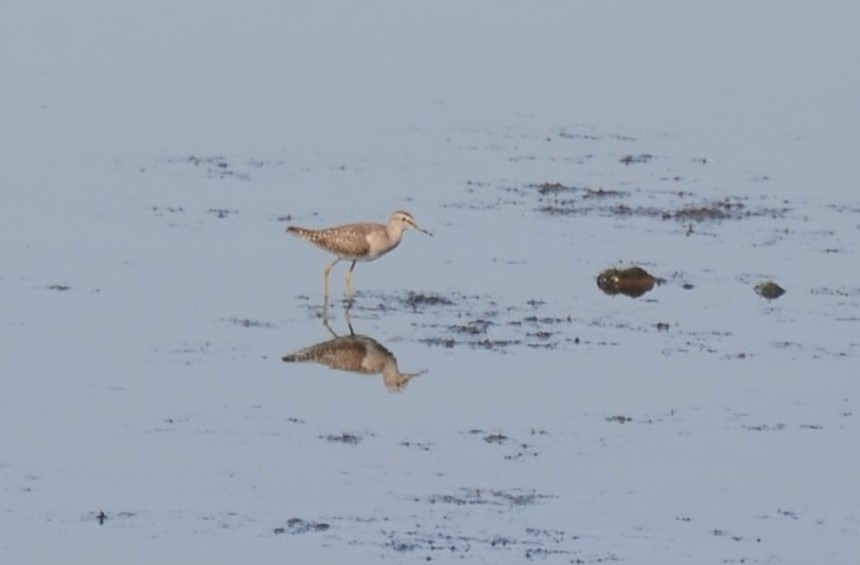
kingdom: Animalia
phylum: Chordata
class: Aves
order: Charadriiformes
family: Scolopacidae
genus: Tringa
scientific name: Tringa glareola
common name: Wood sandpiper
